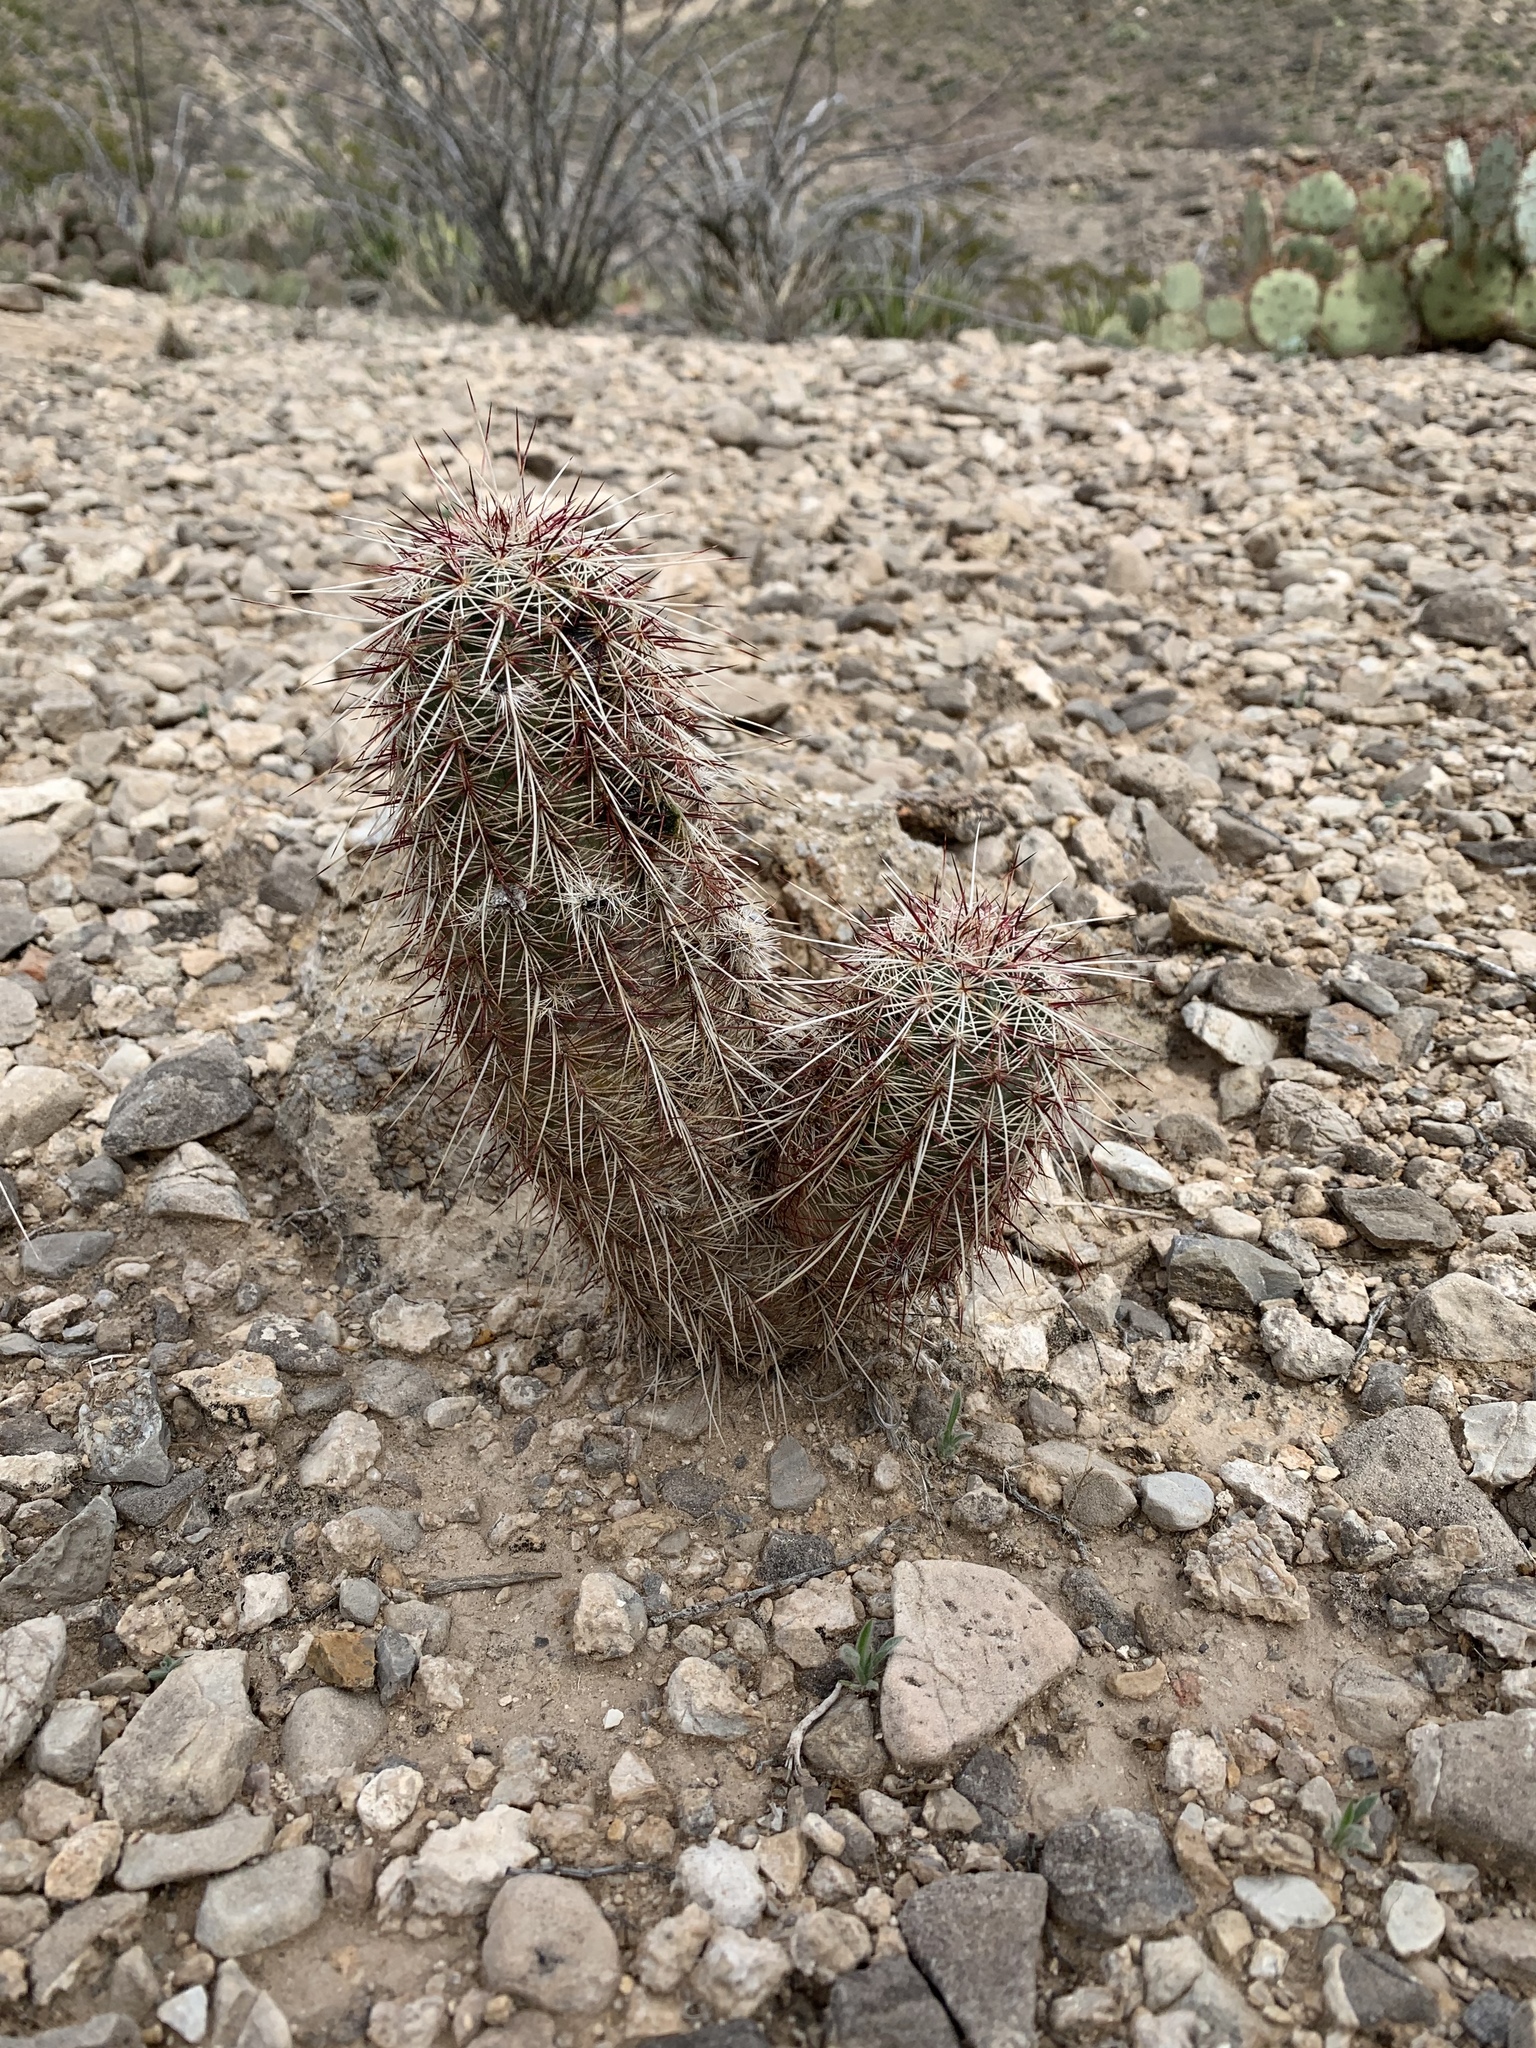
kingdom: Plantae
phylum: Tracheophyta
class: Magnoliopsida
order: Caryophyllales
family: Cactaceae
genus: Echinocereus
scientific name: Echinocereus viridiflorus
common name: Nylon hedgehog cactus
